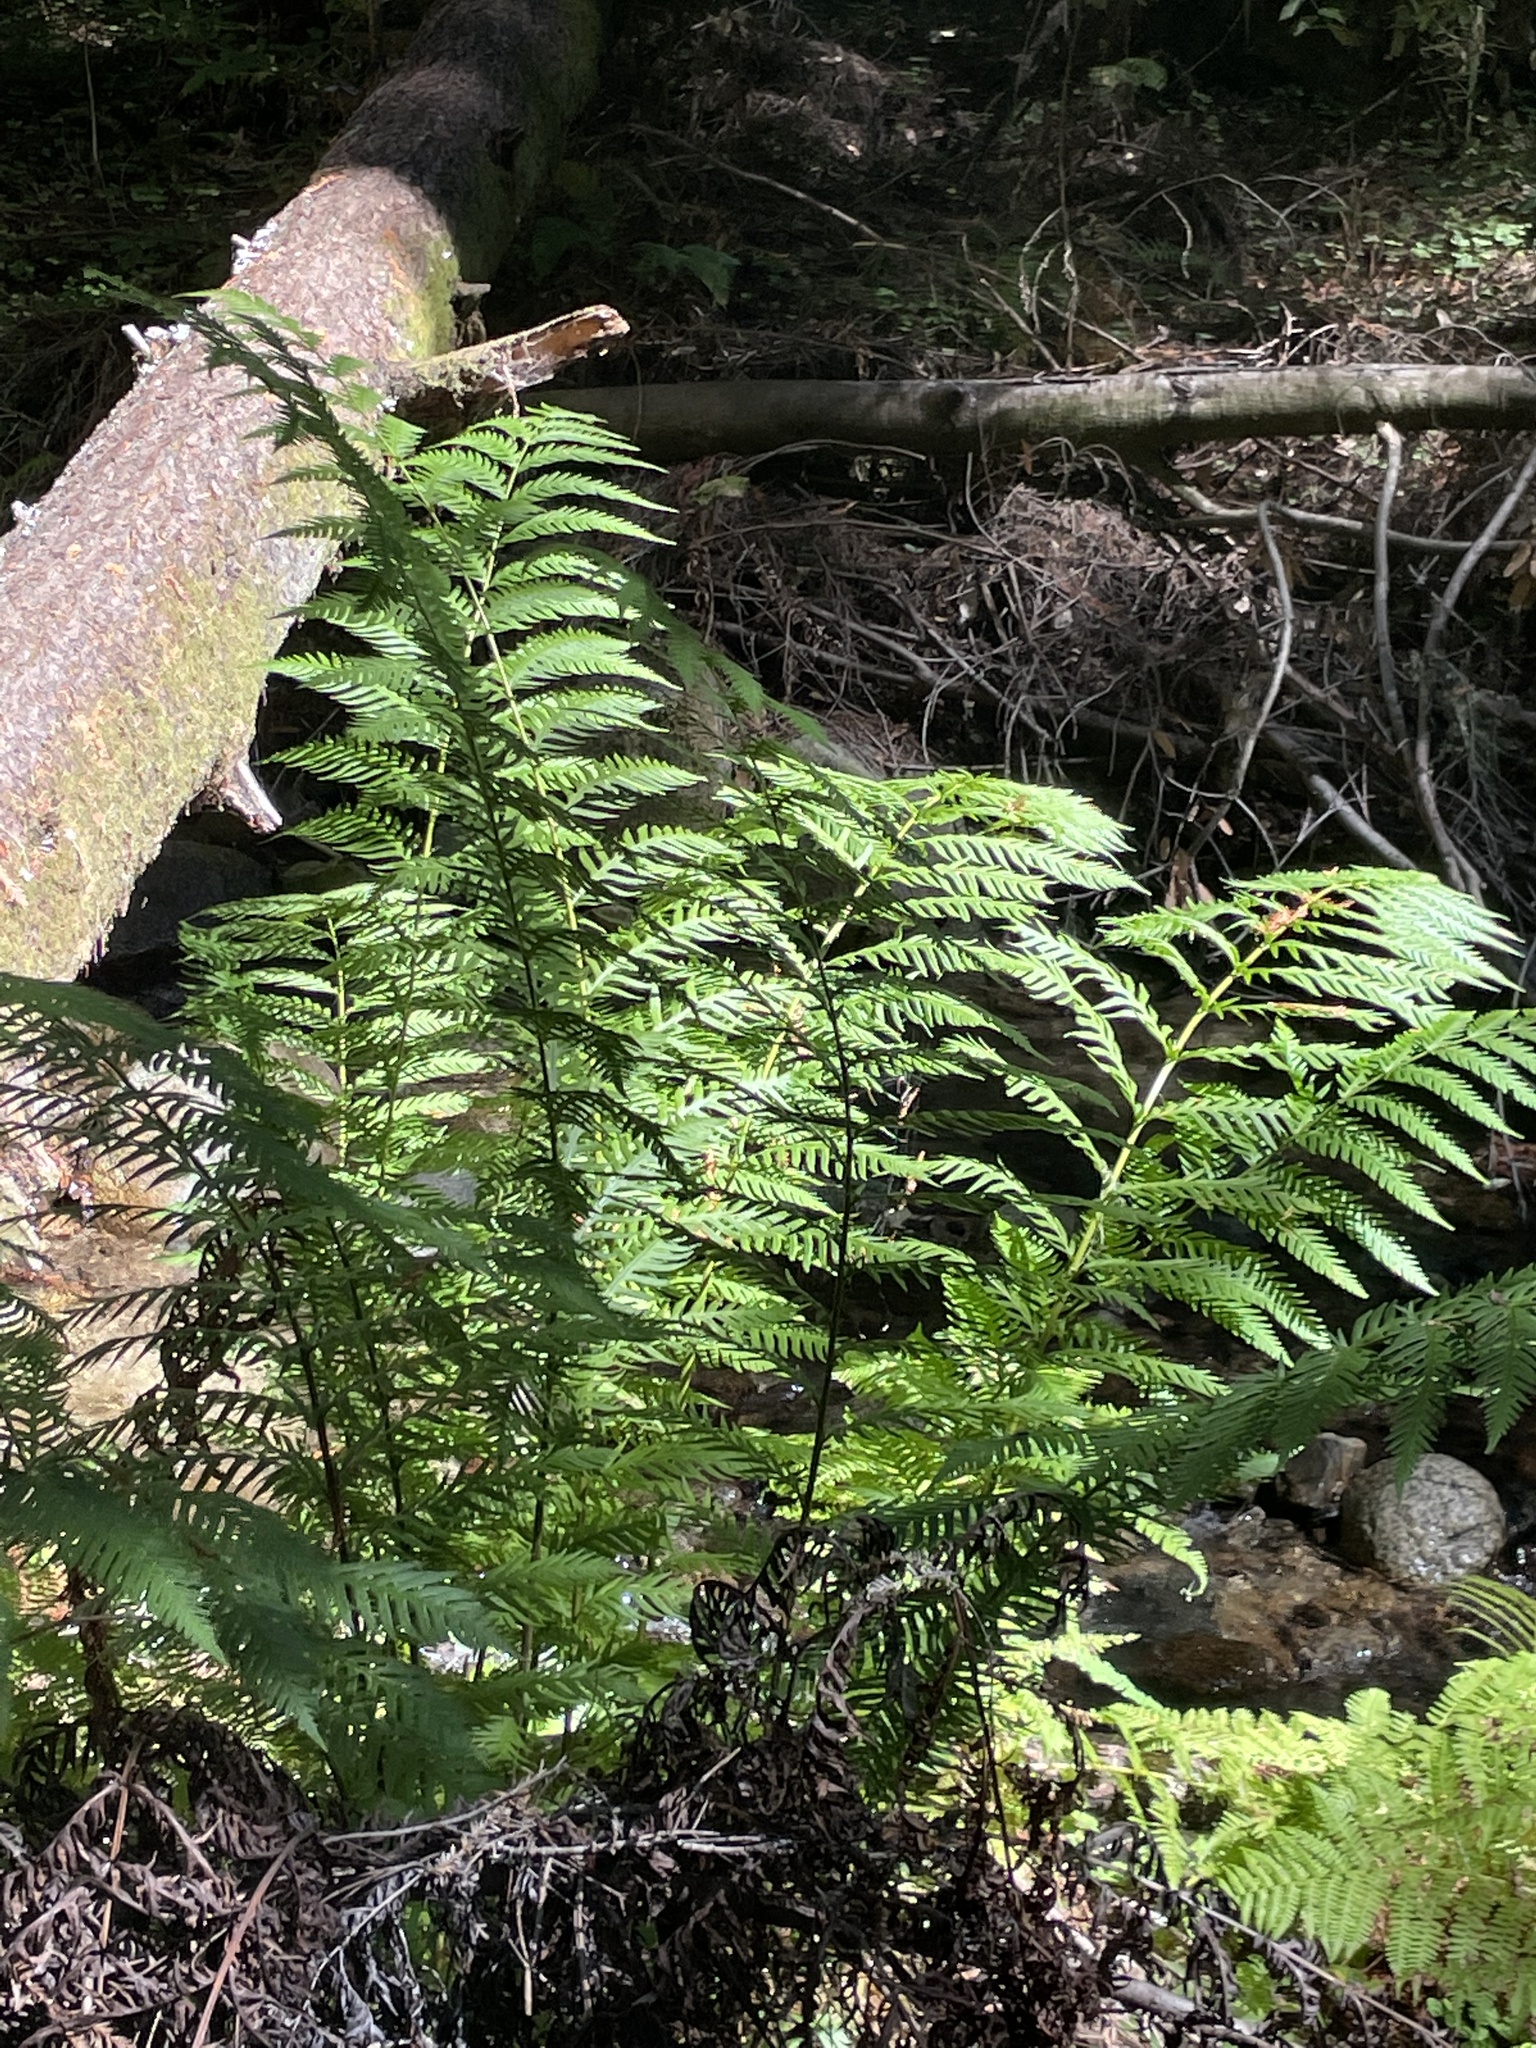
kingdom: Plantae
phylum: Tracheophyta
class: Polypodiopsida
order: Polypodiales
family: Blechnaceae
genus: Woodwardia
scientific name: Woodwardia fimbriata
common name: Giant chain fern
